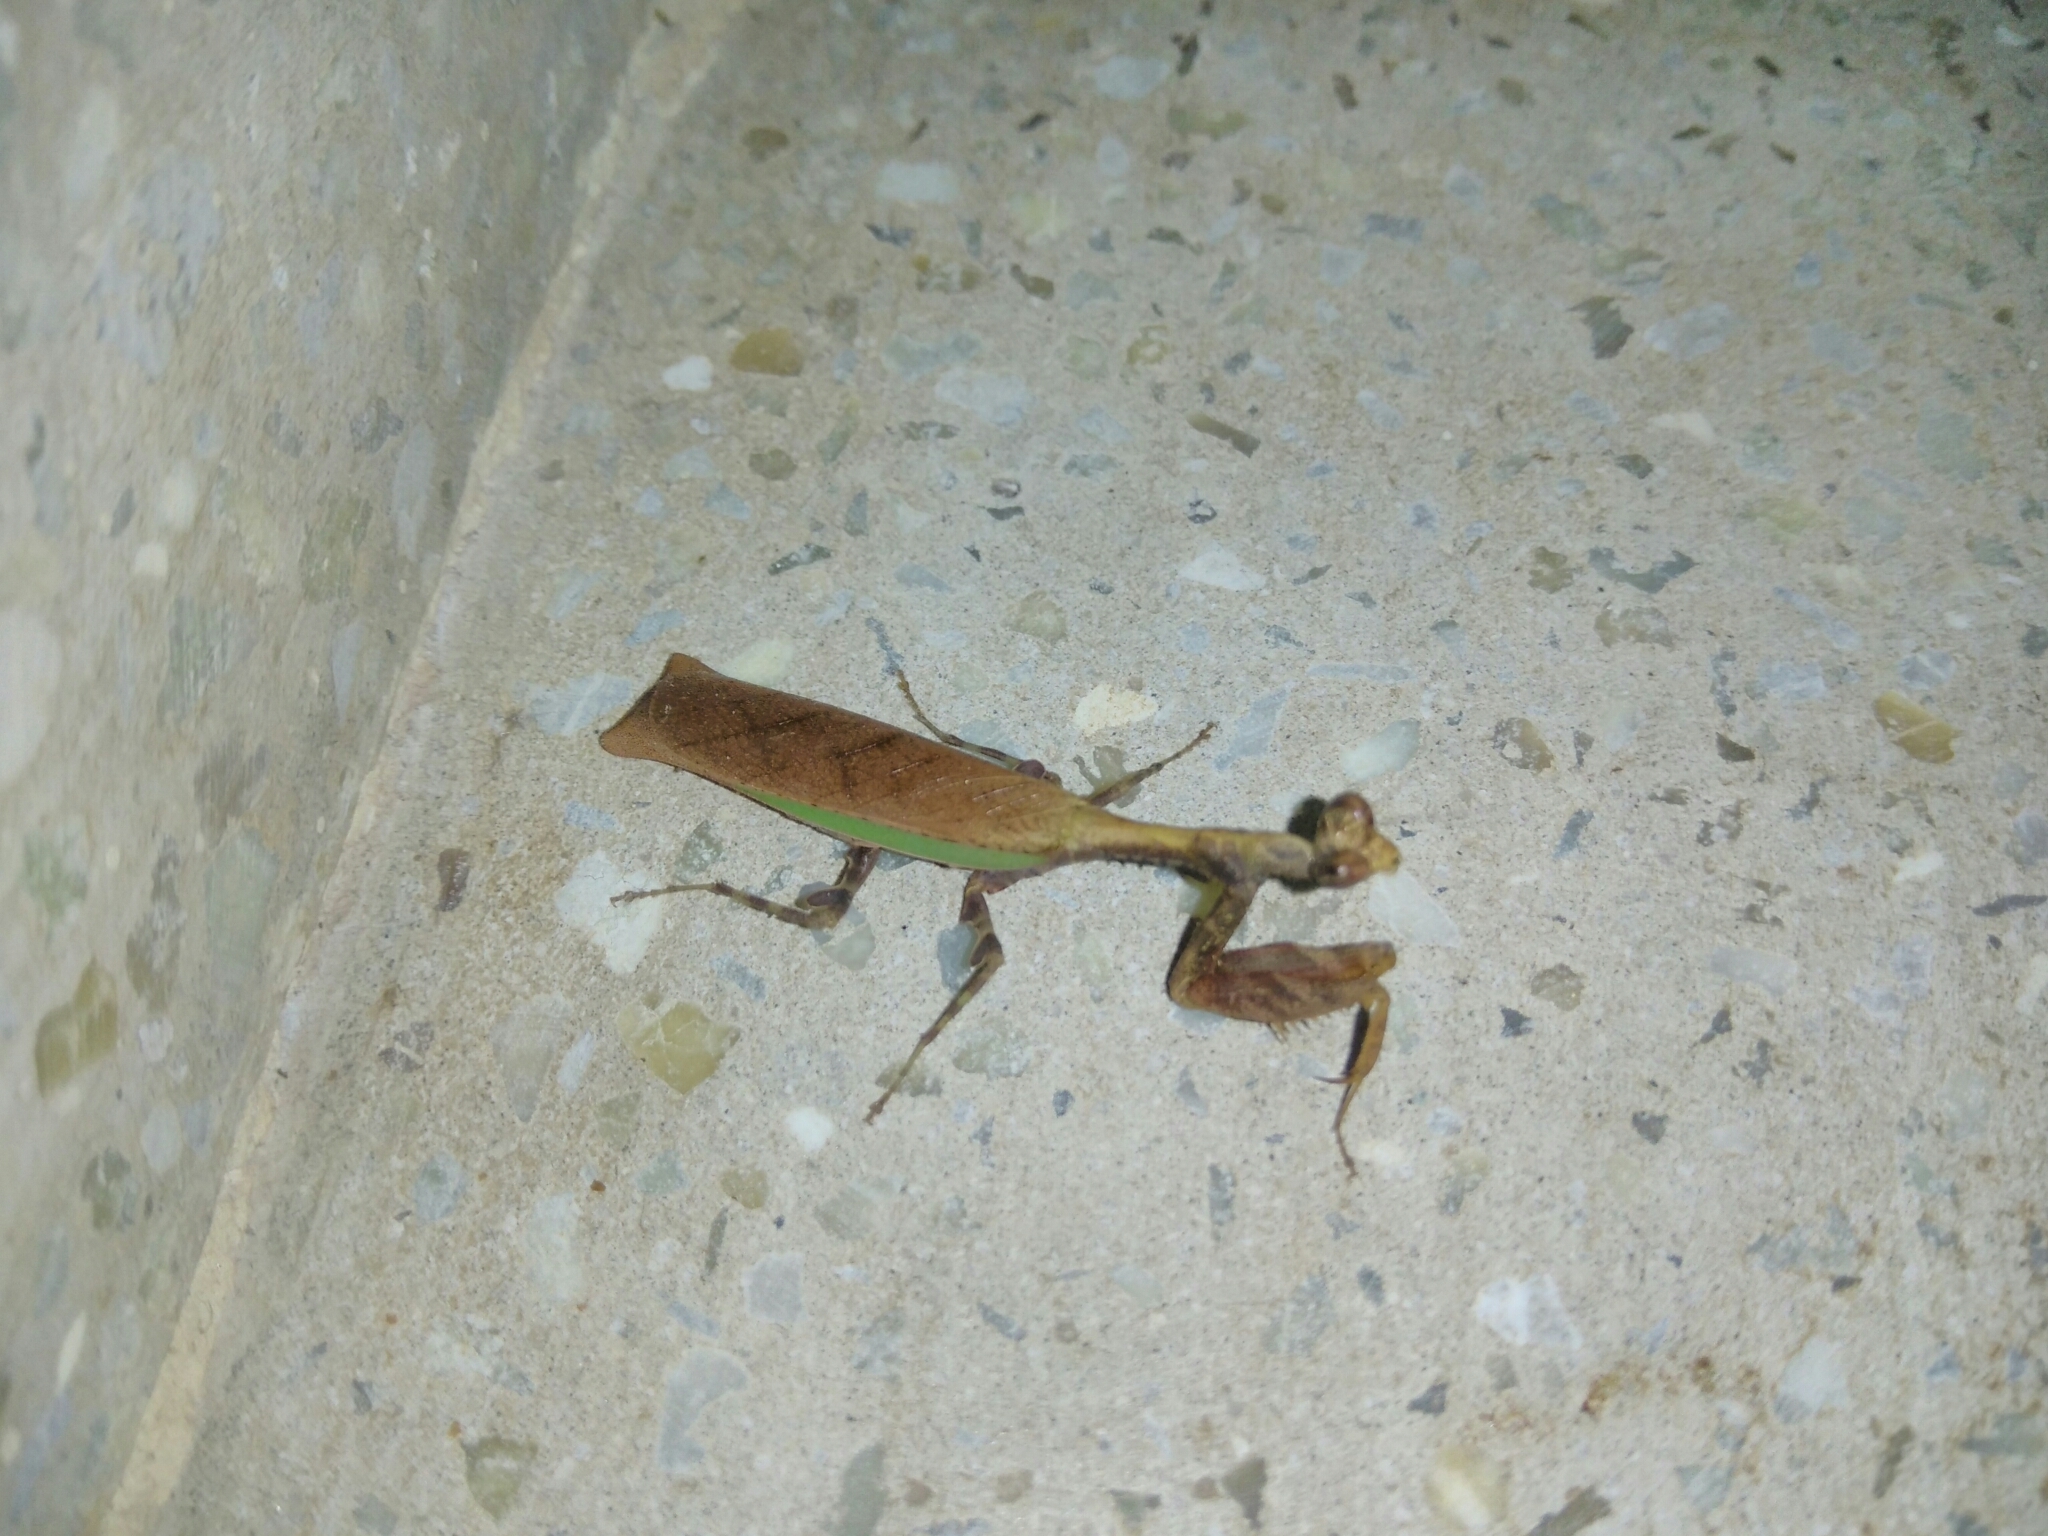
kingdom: Animalia
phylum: Arthropoda
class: Insecta
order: Mantodea
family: Hymenopodidae
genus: Acromantis
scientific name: Acromantis indica
